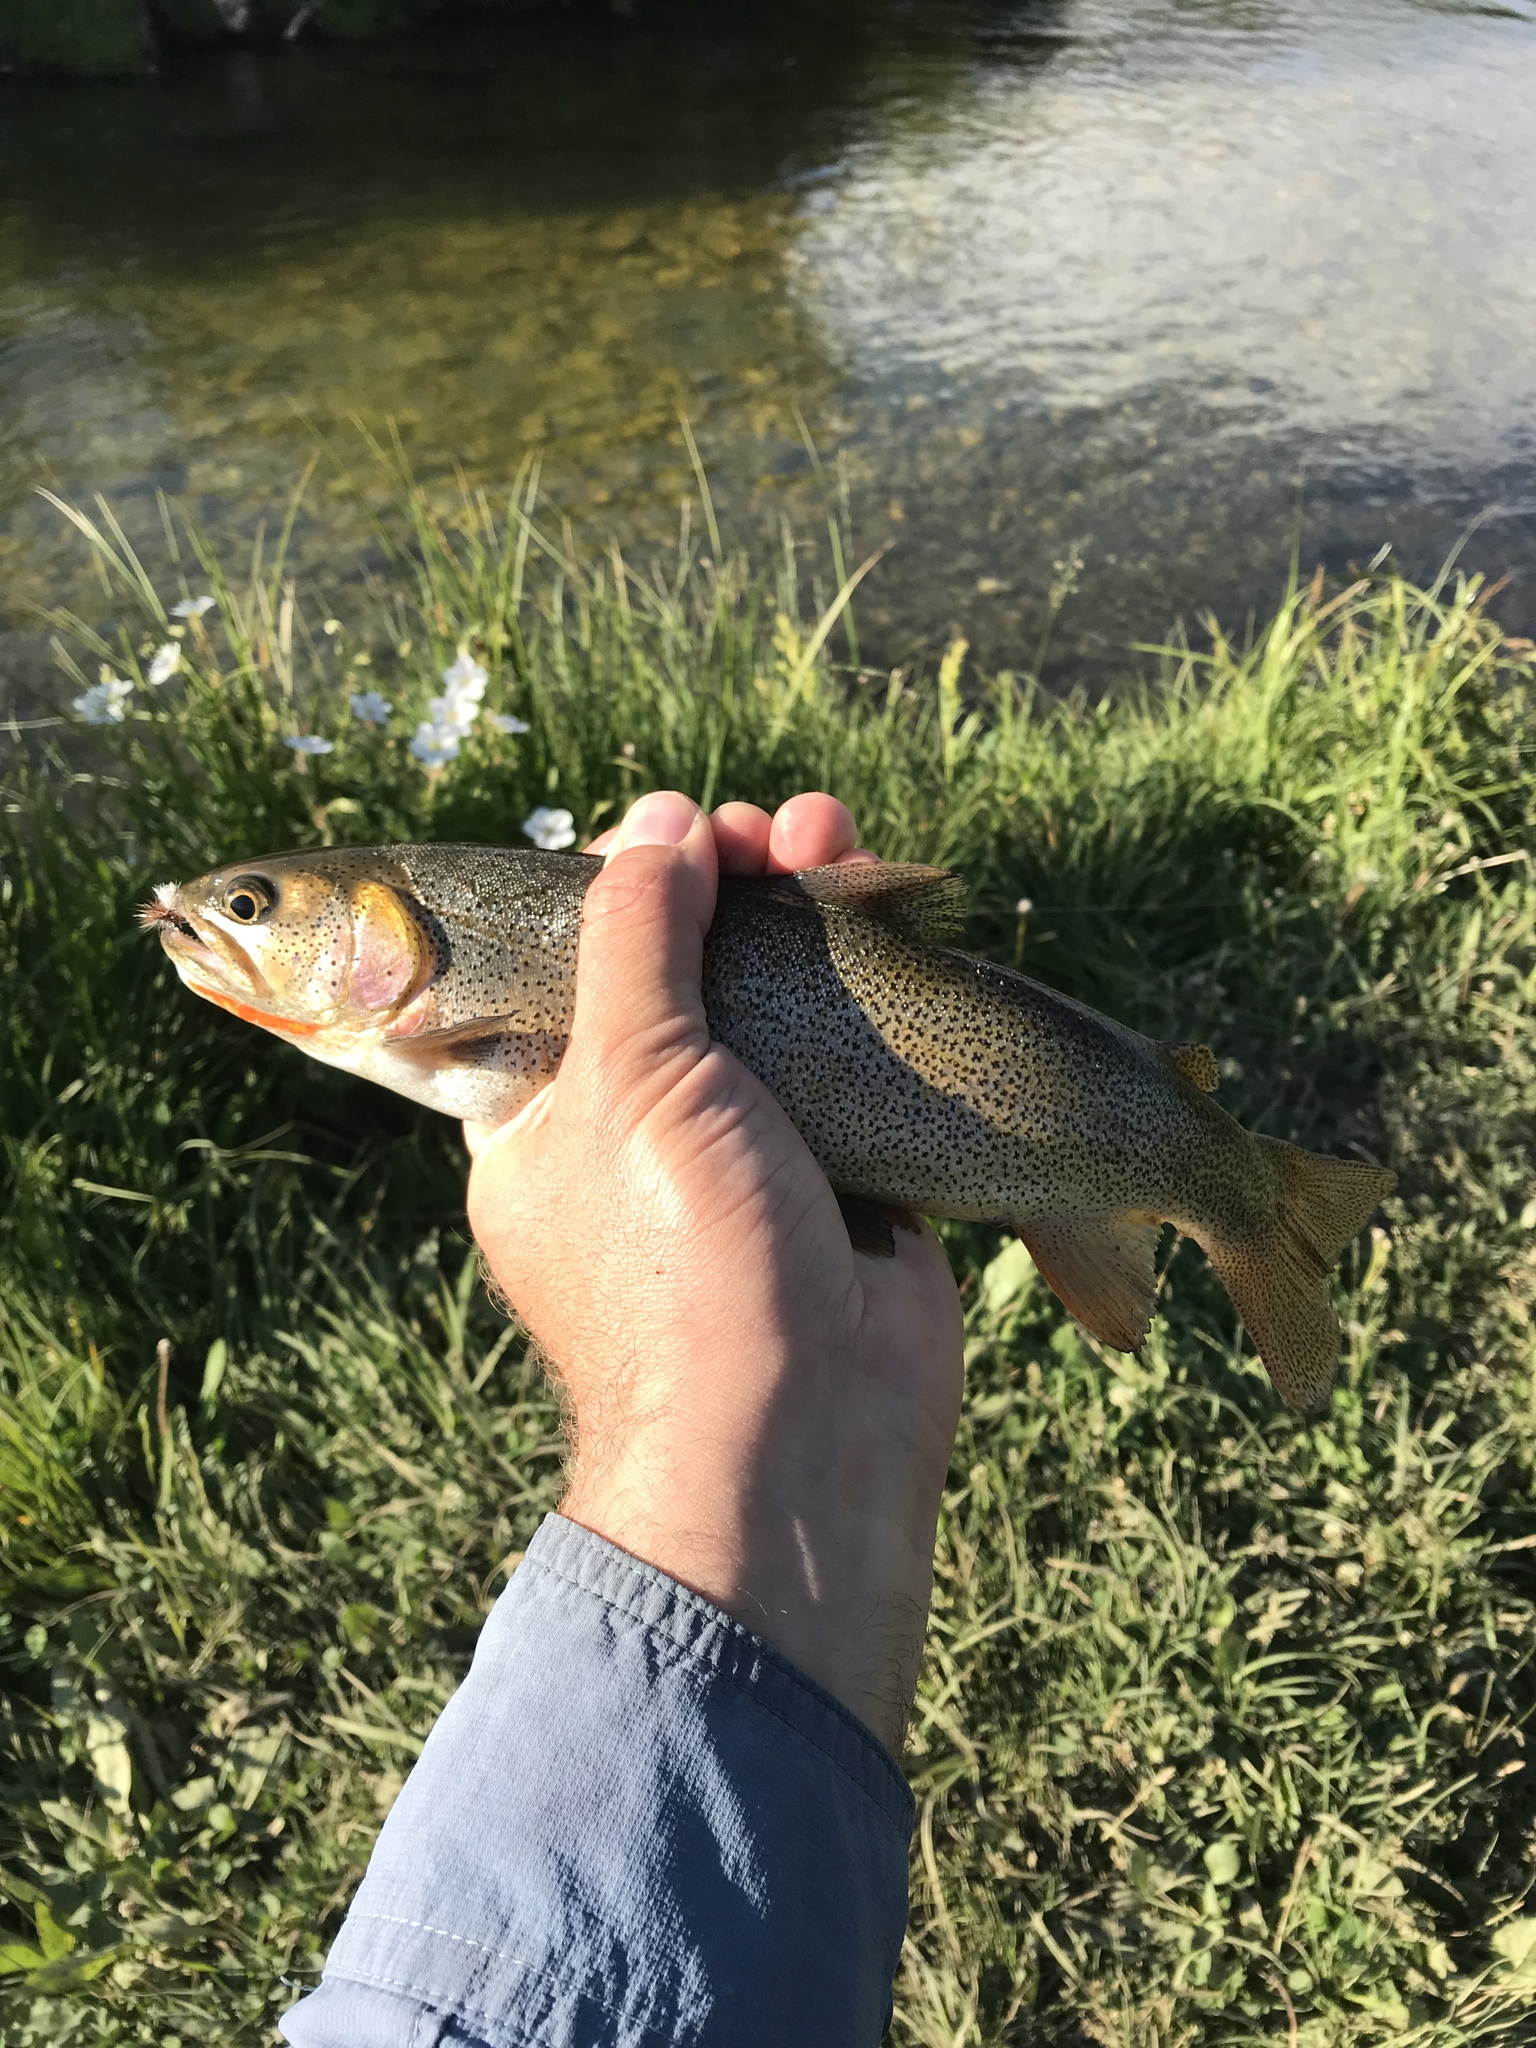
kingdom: Animalia
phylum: Chordata
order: Salmoniformes
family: Salmonidae
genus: Oncorhynchus
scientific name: Oncorhynchus virginalis
